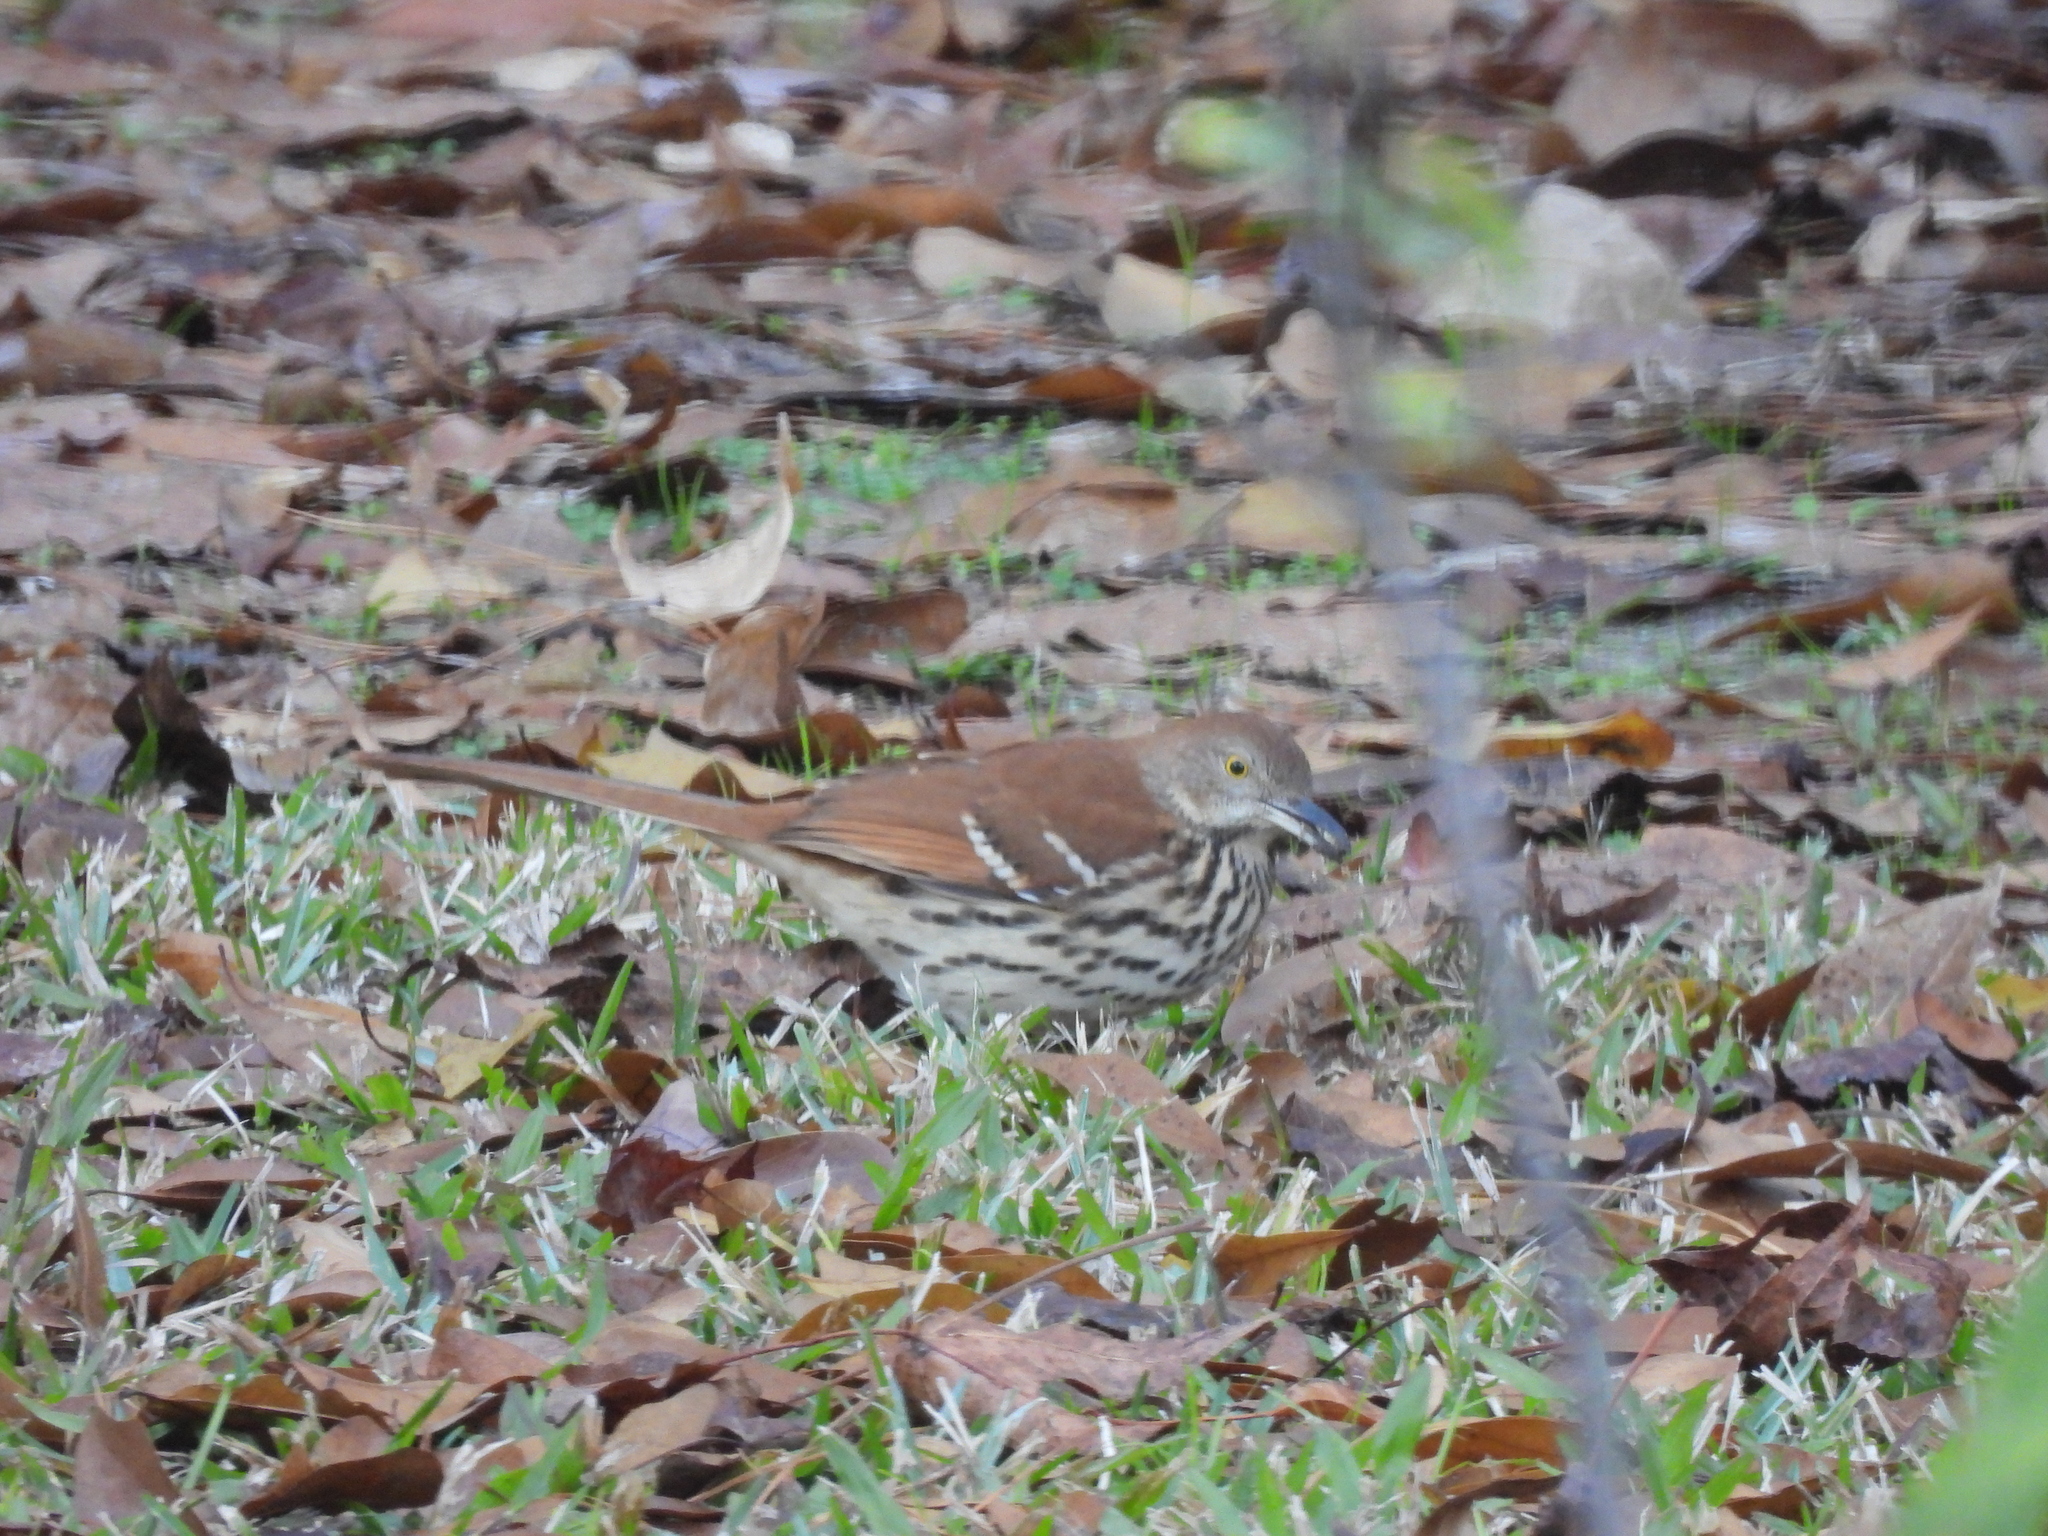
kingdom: Animalia
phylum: Chordata
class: Aves
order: Passeriformes
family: Mimidae
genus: Toxostoma
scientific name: Toxostoma rufum
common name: Brown thrasher
